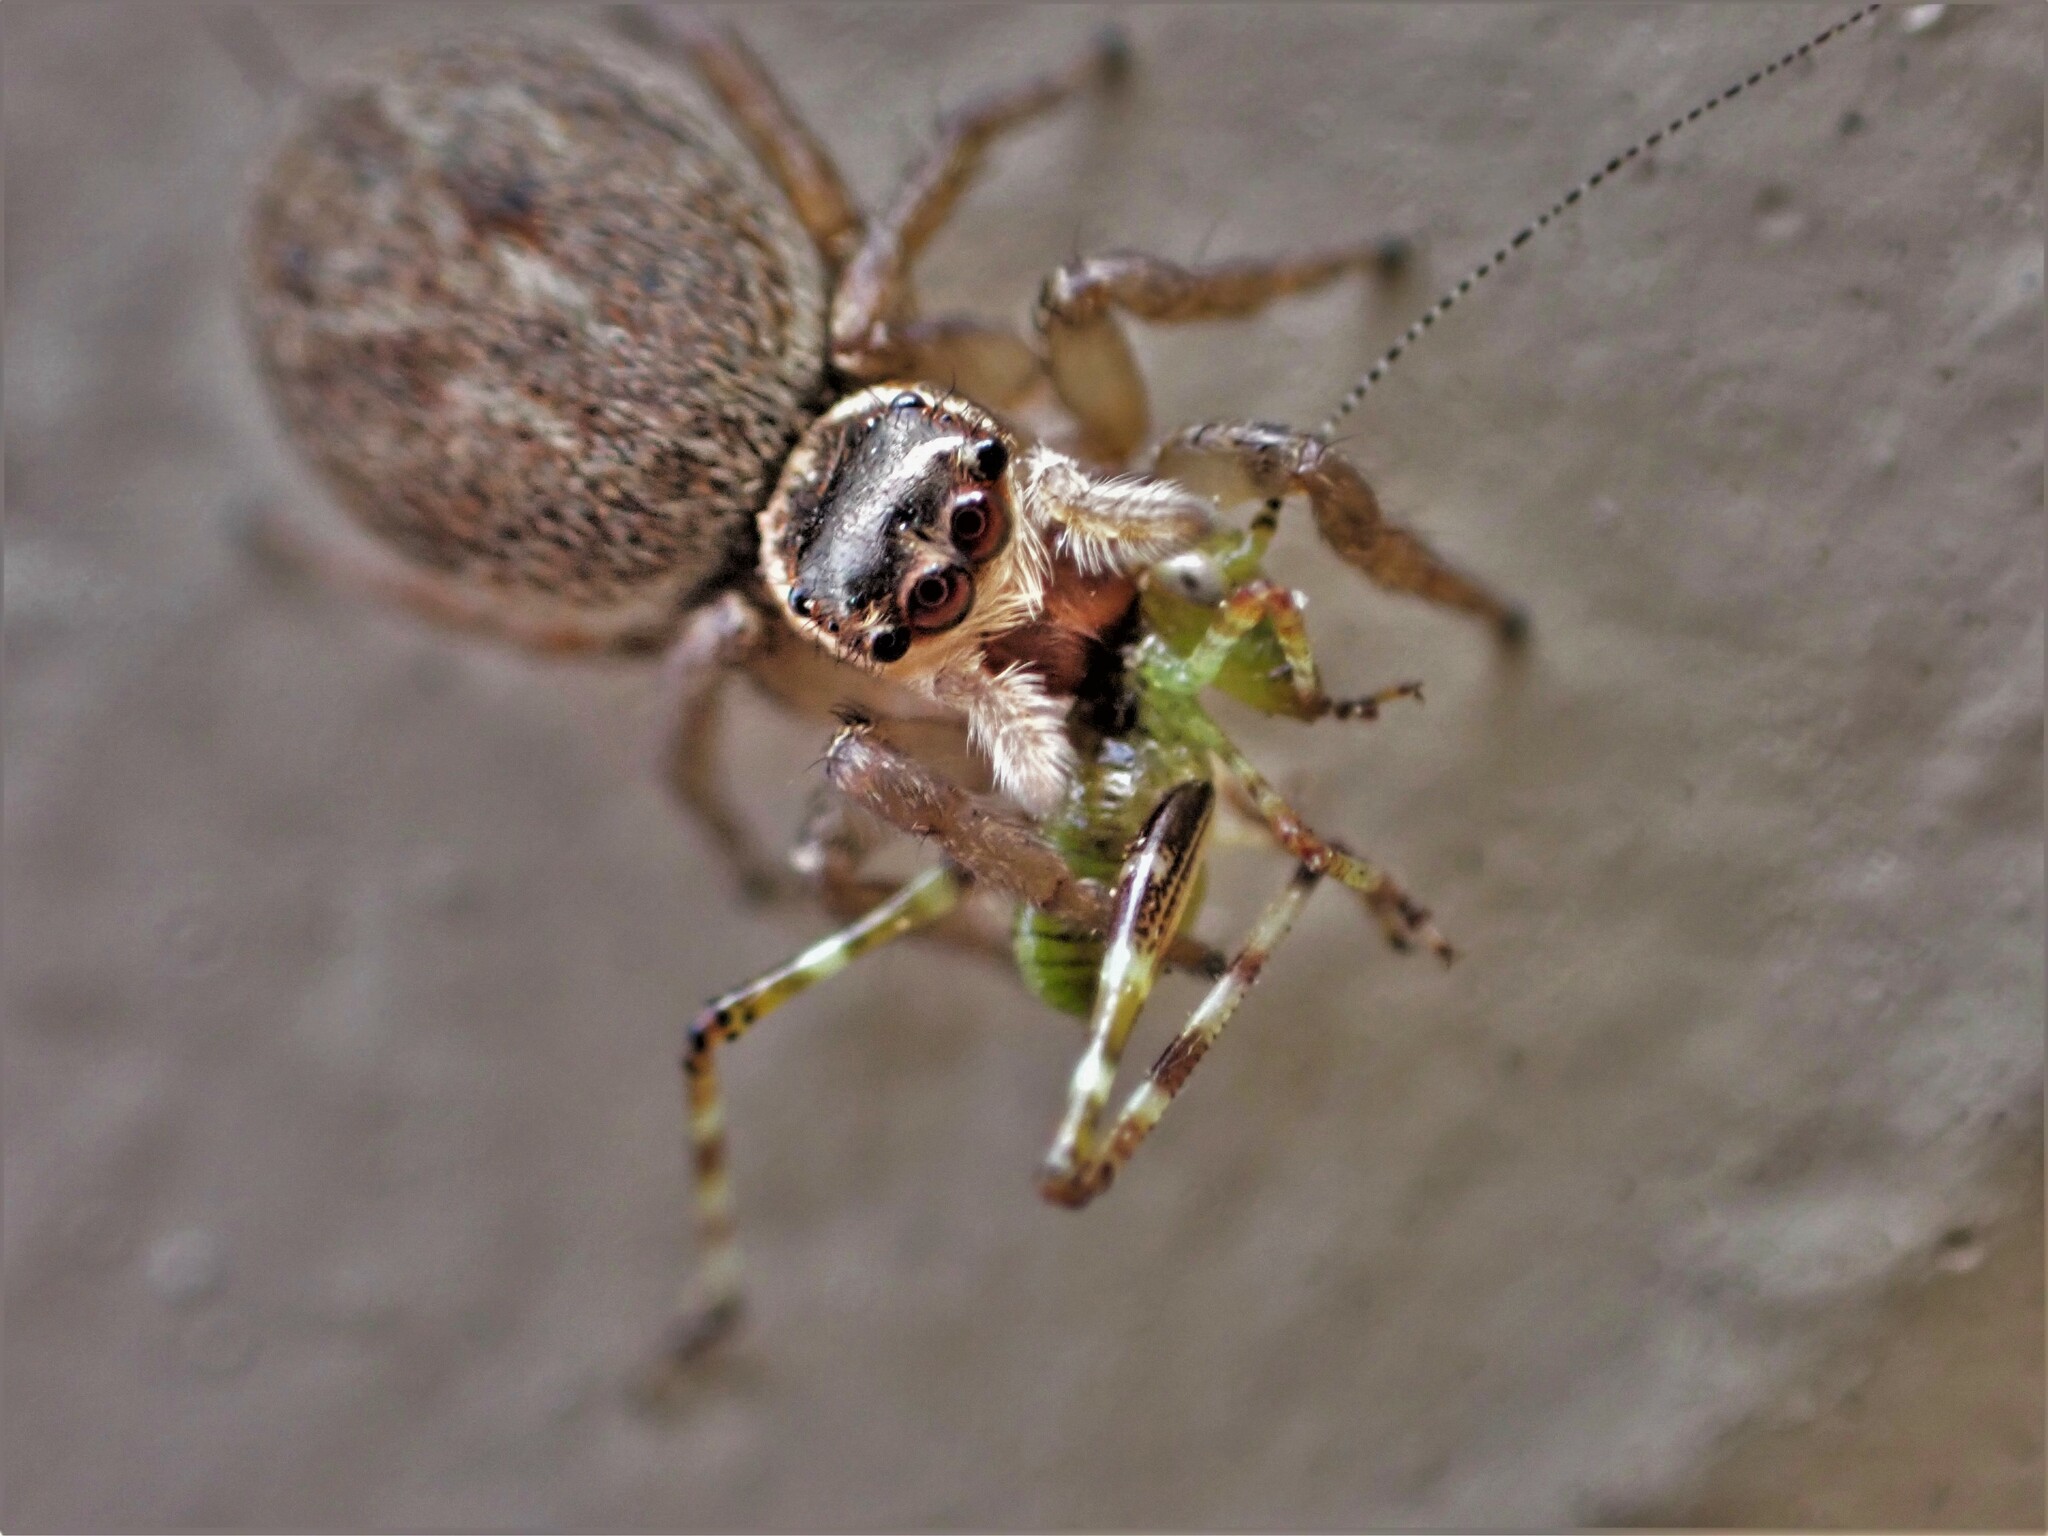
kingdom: Animalia
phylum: Arthropoda
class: Arachnida
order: Araneae
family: Salticidae
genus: Maratus
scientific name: Maratus griseus
